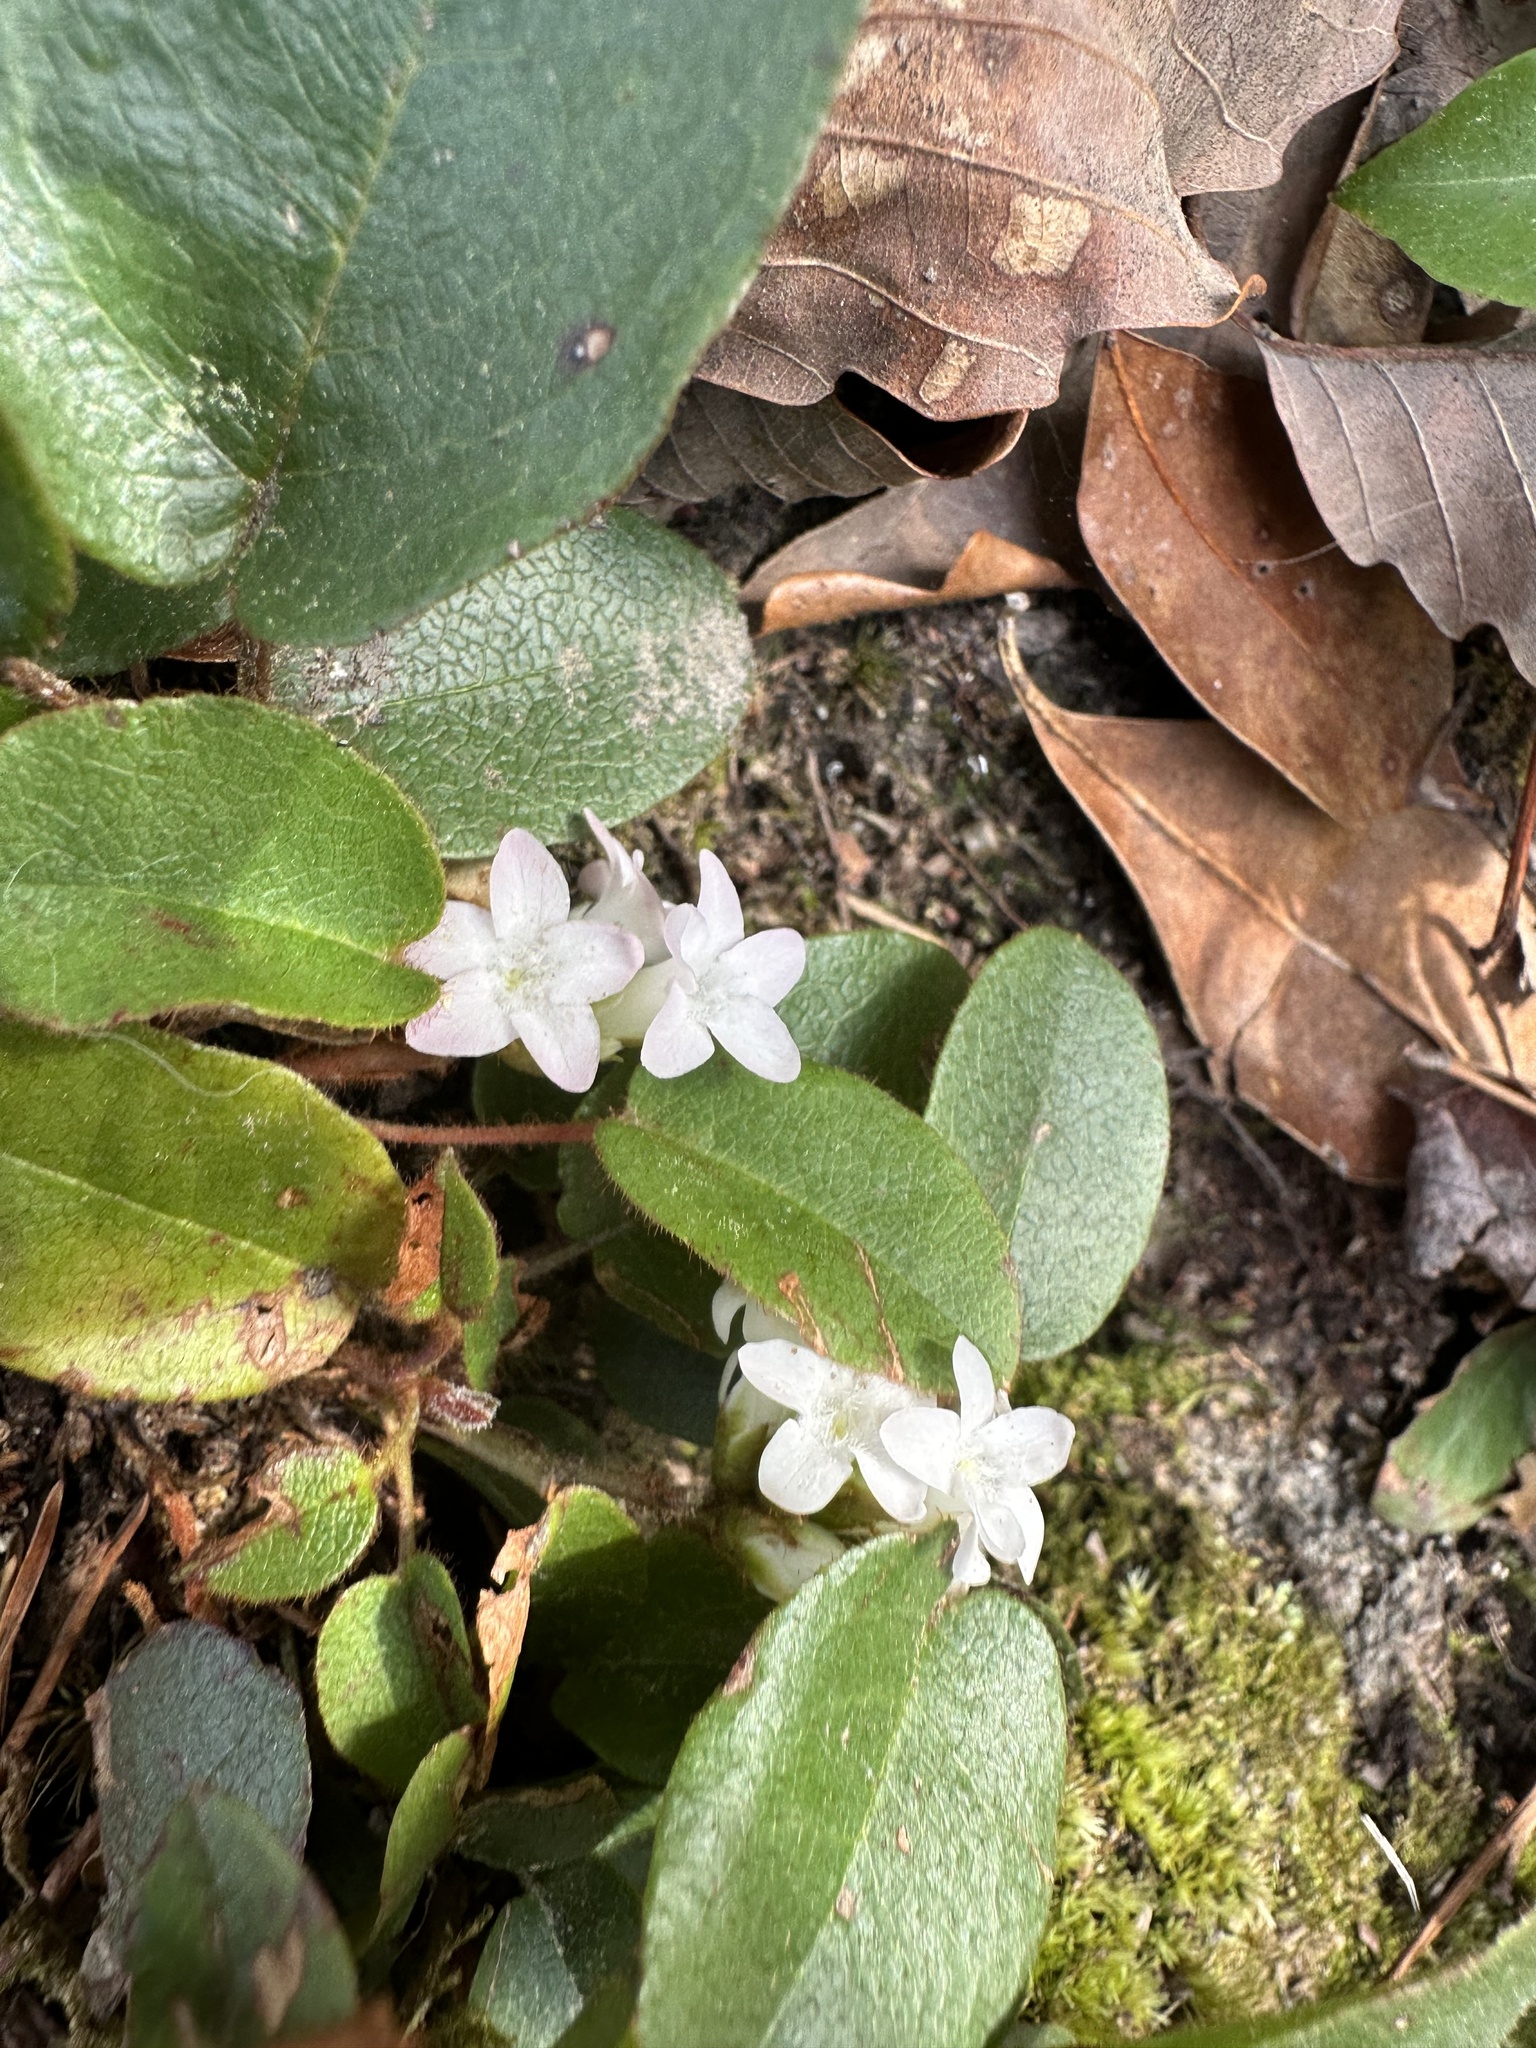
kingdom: Plantae
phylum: Tracheophyta
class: Magnoliopsida
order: Ericales
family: Ericaceae
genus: Epigaea
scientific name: Epigaea repens
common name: Gravelroot
